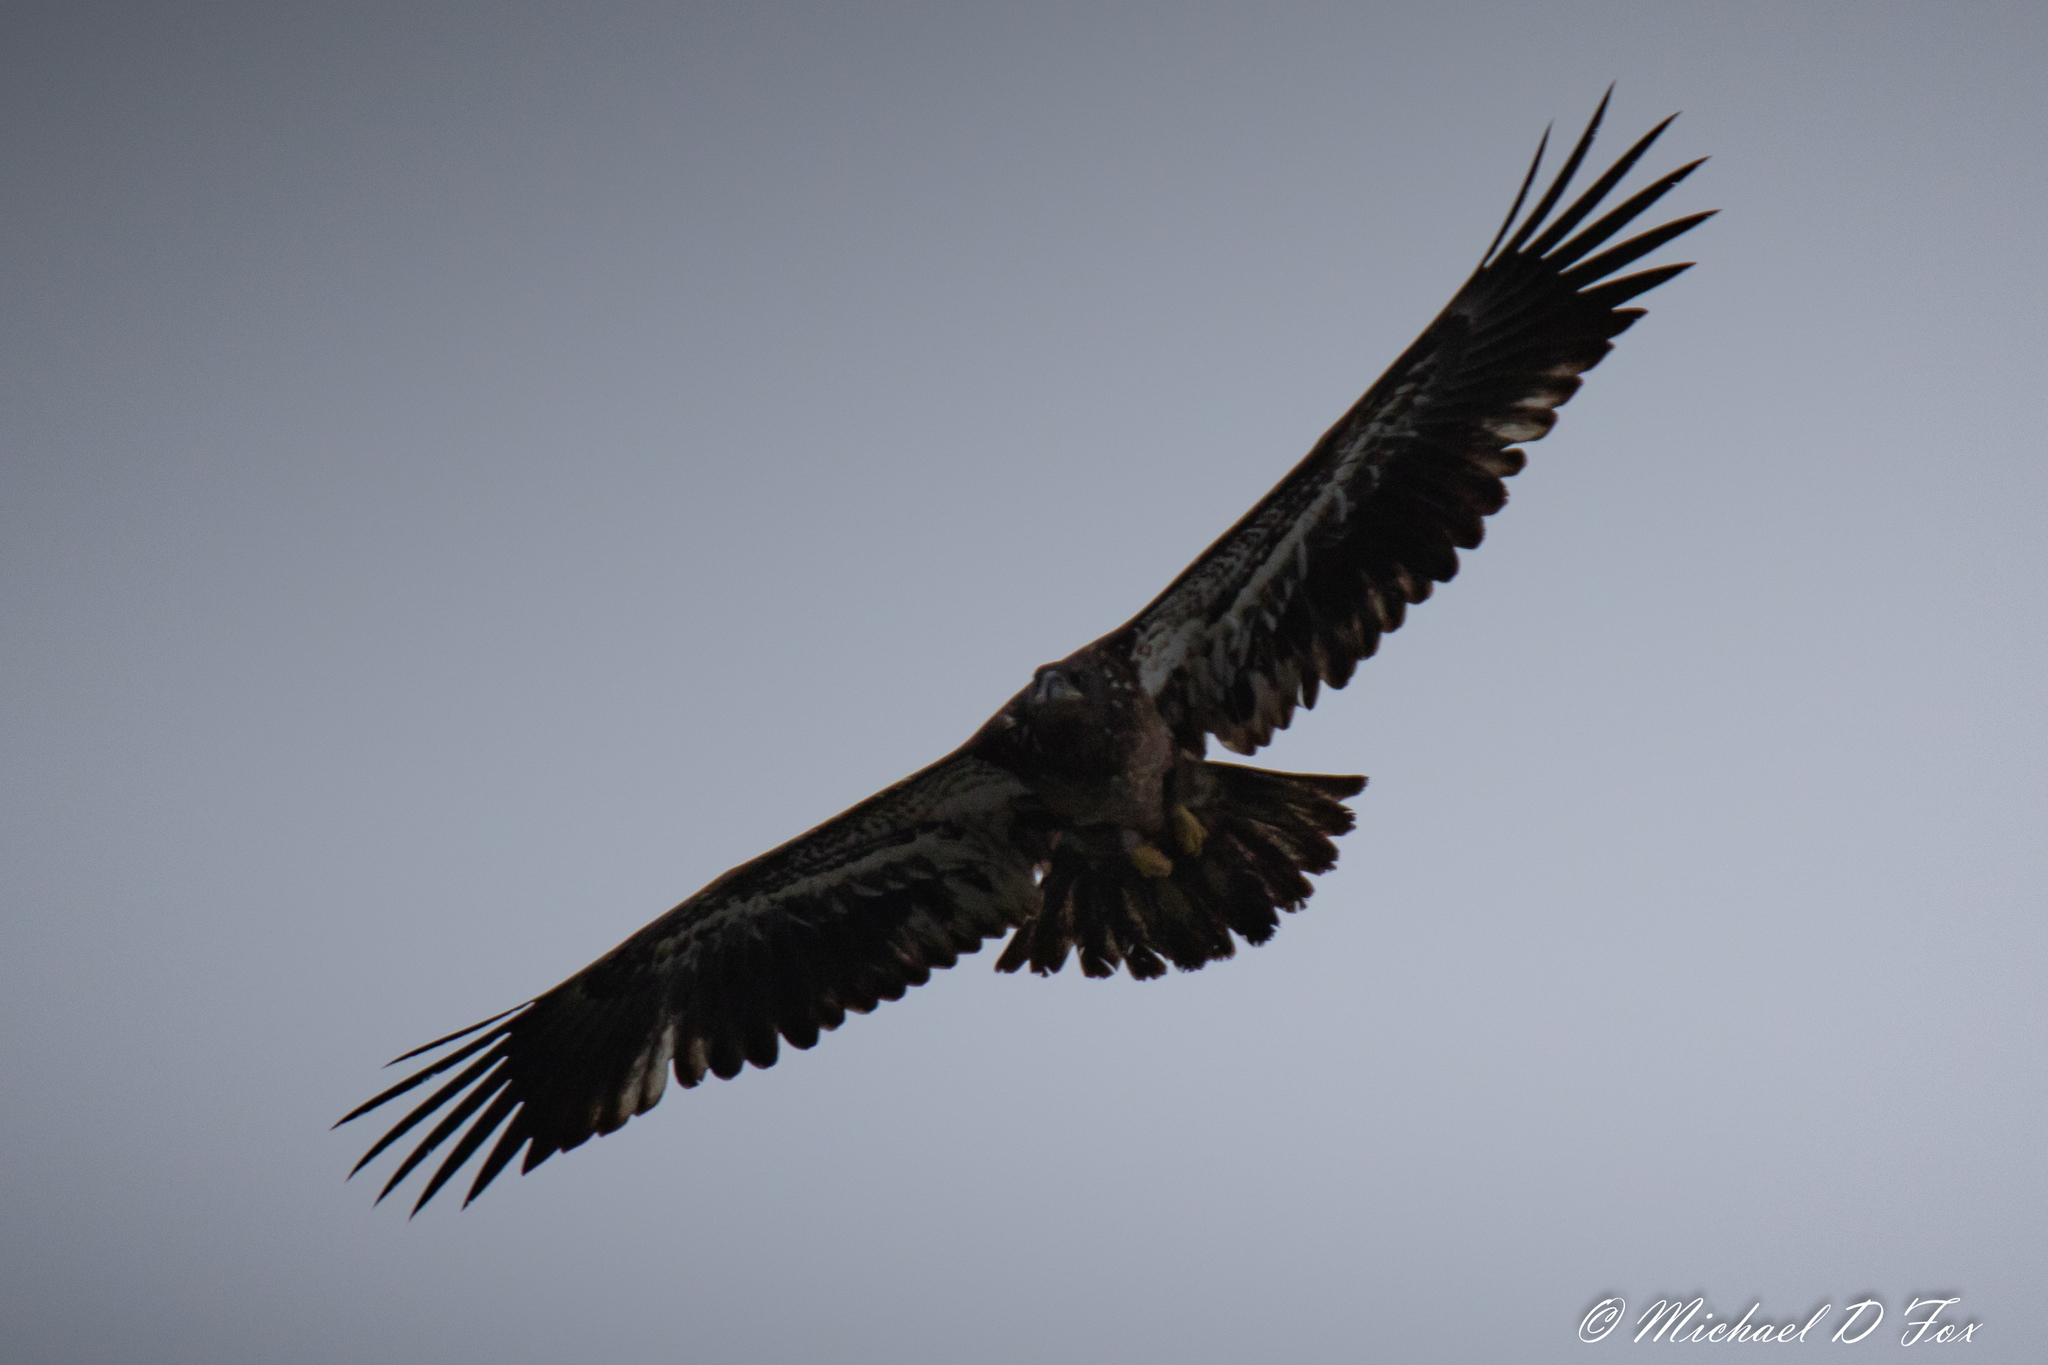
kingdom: Animalia
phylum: Chordata
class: Aves
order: Accipitriformes
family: Accipitridae
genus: Haliaeetus
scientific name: Haliaeetus leucocephalus
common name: Bald eagle
